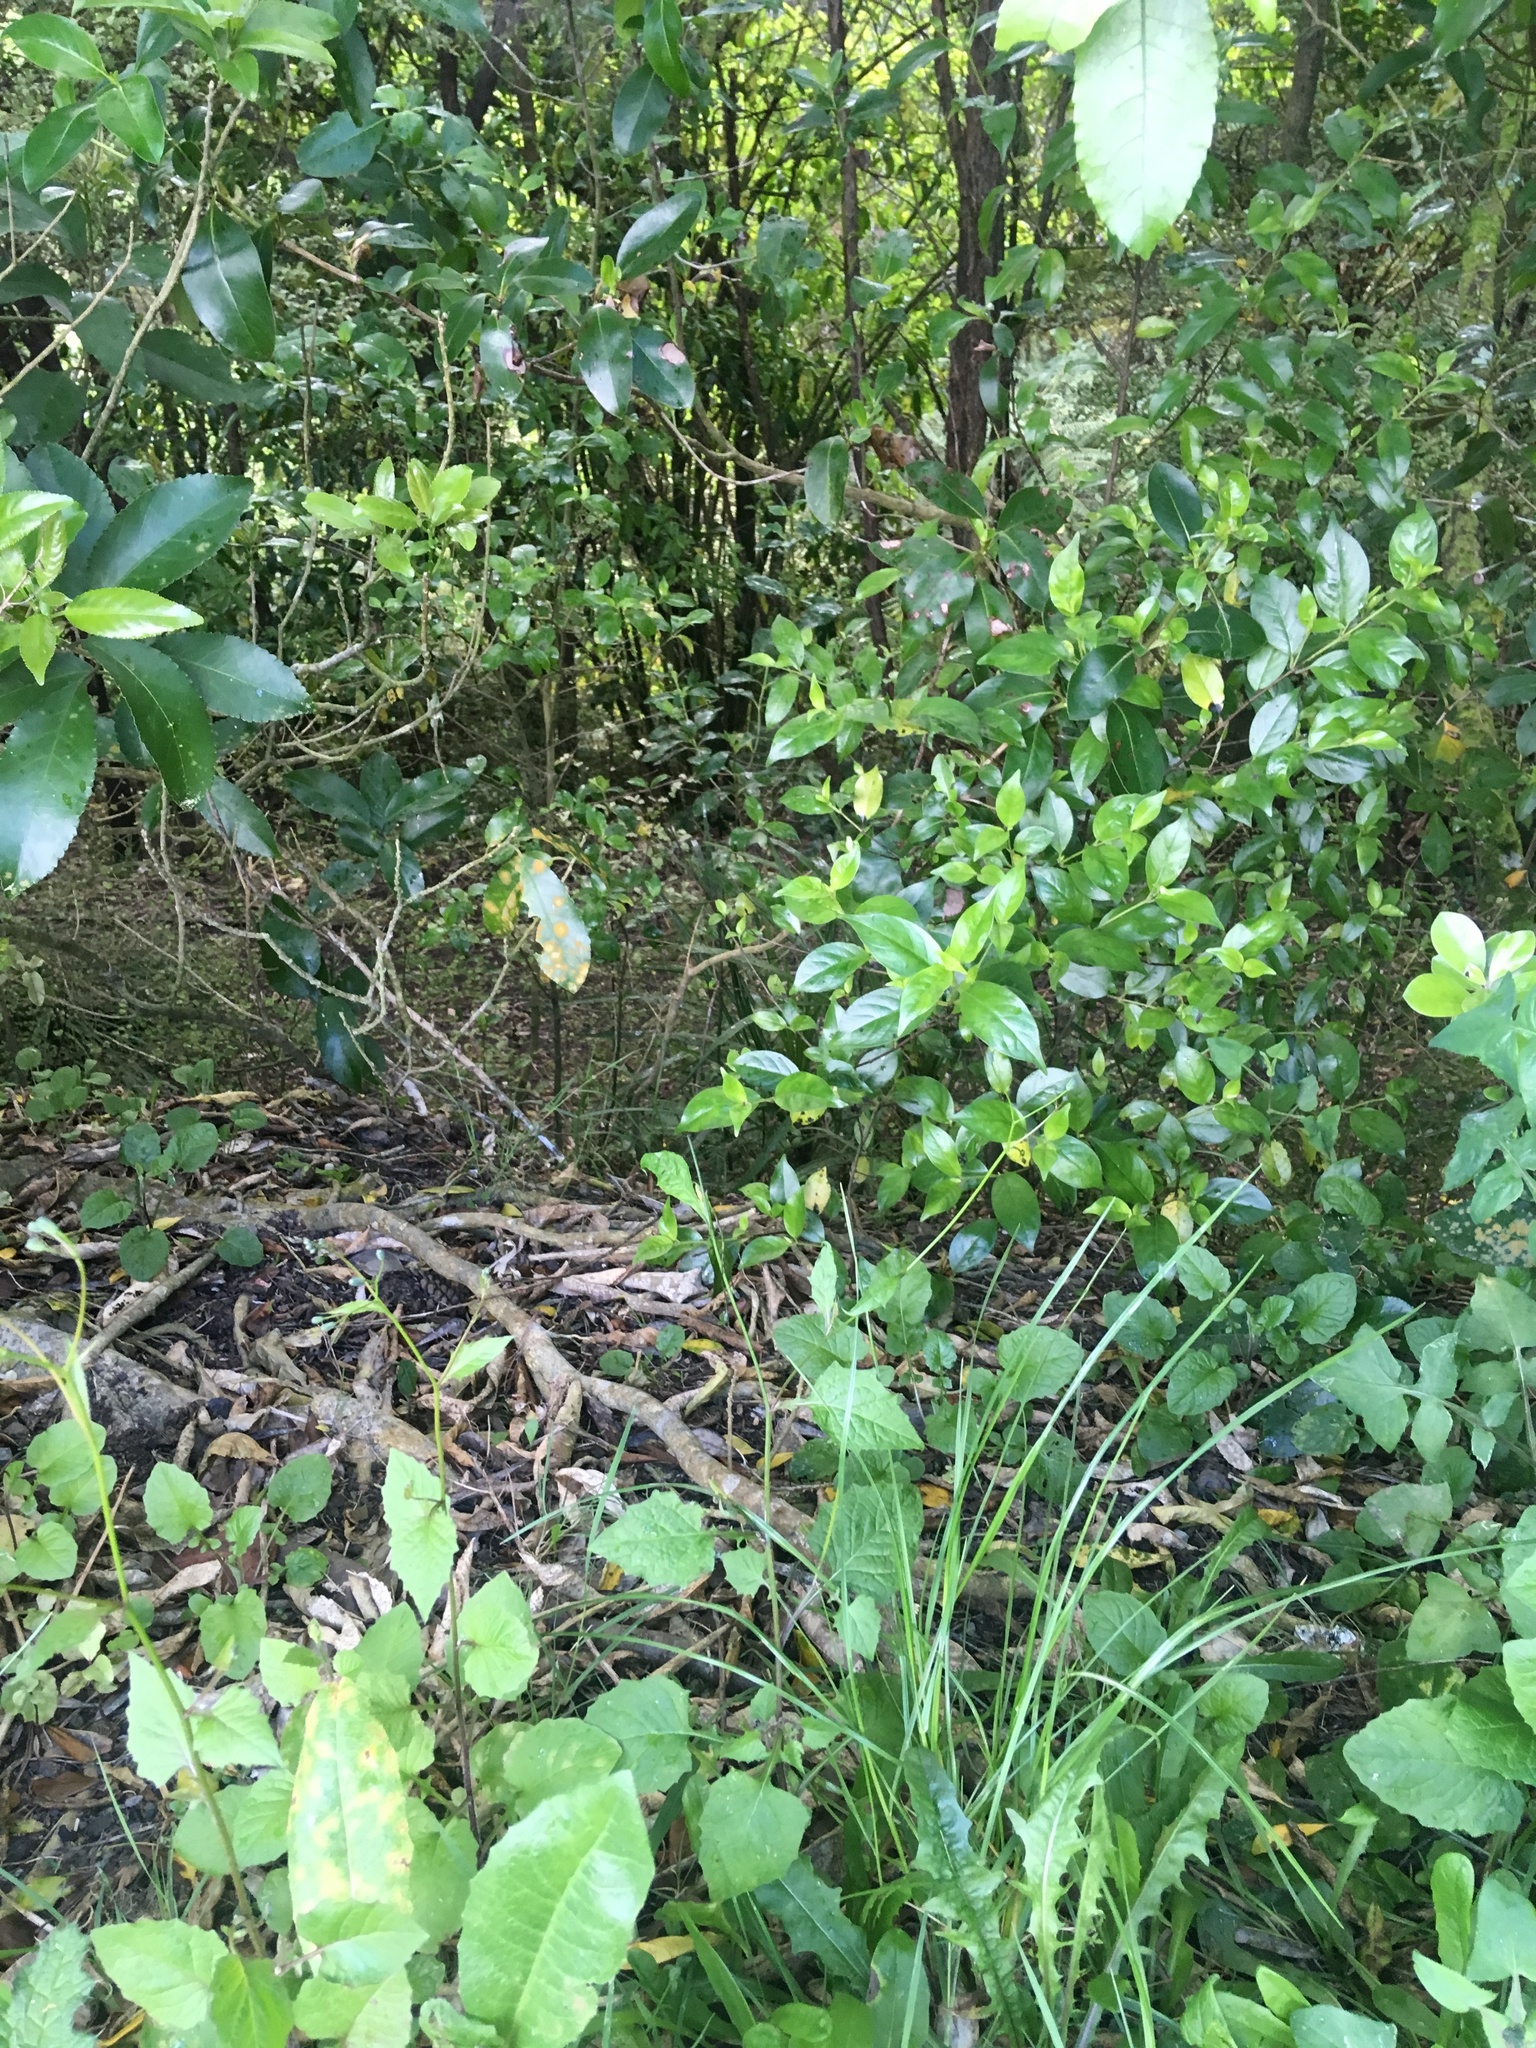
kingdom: Plantae
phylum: Tracheophyta
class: Magnoliopsida
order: Gentianales
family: Loganiaceae
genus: Geniostoma
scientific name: Geniostoma ligustrifolium
